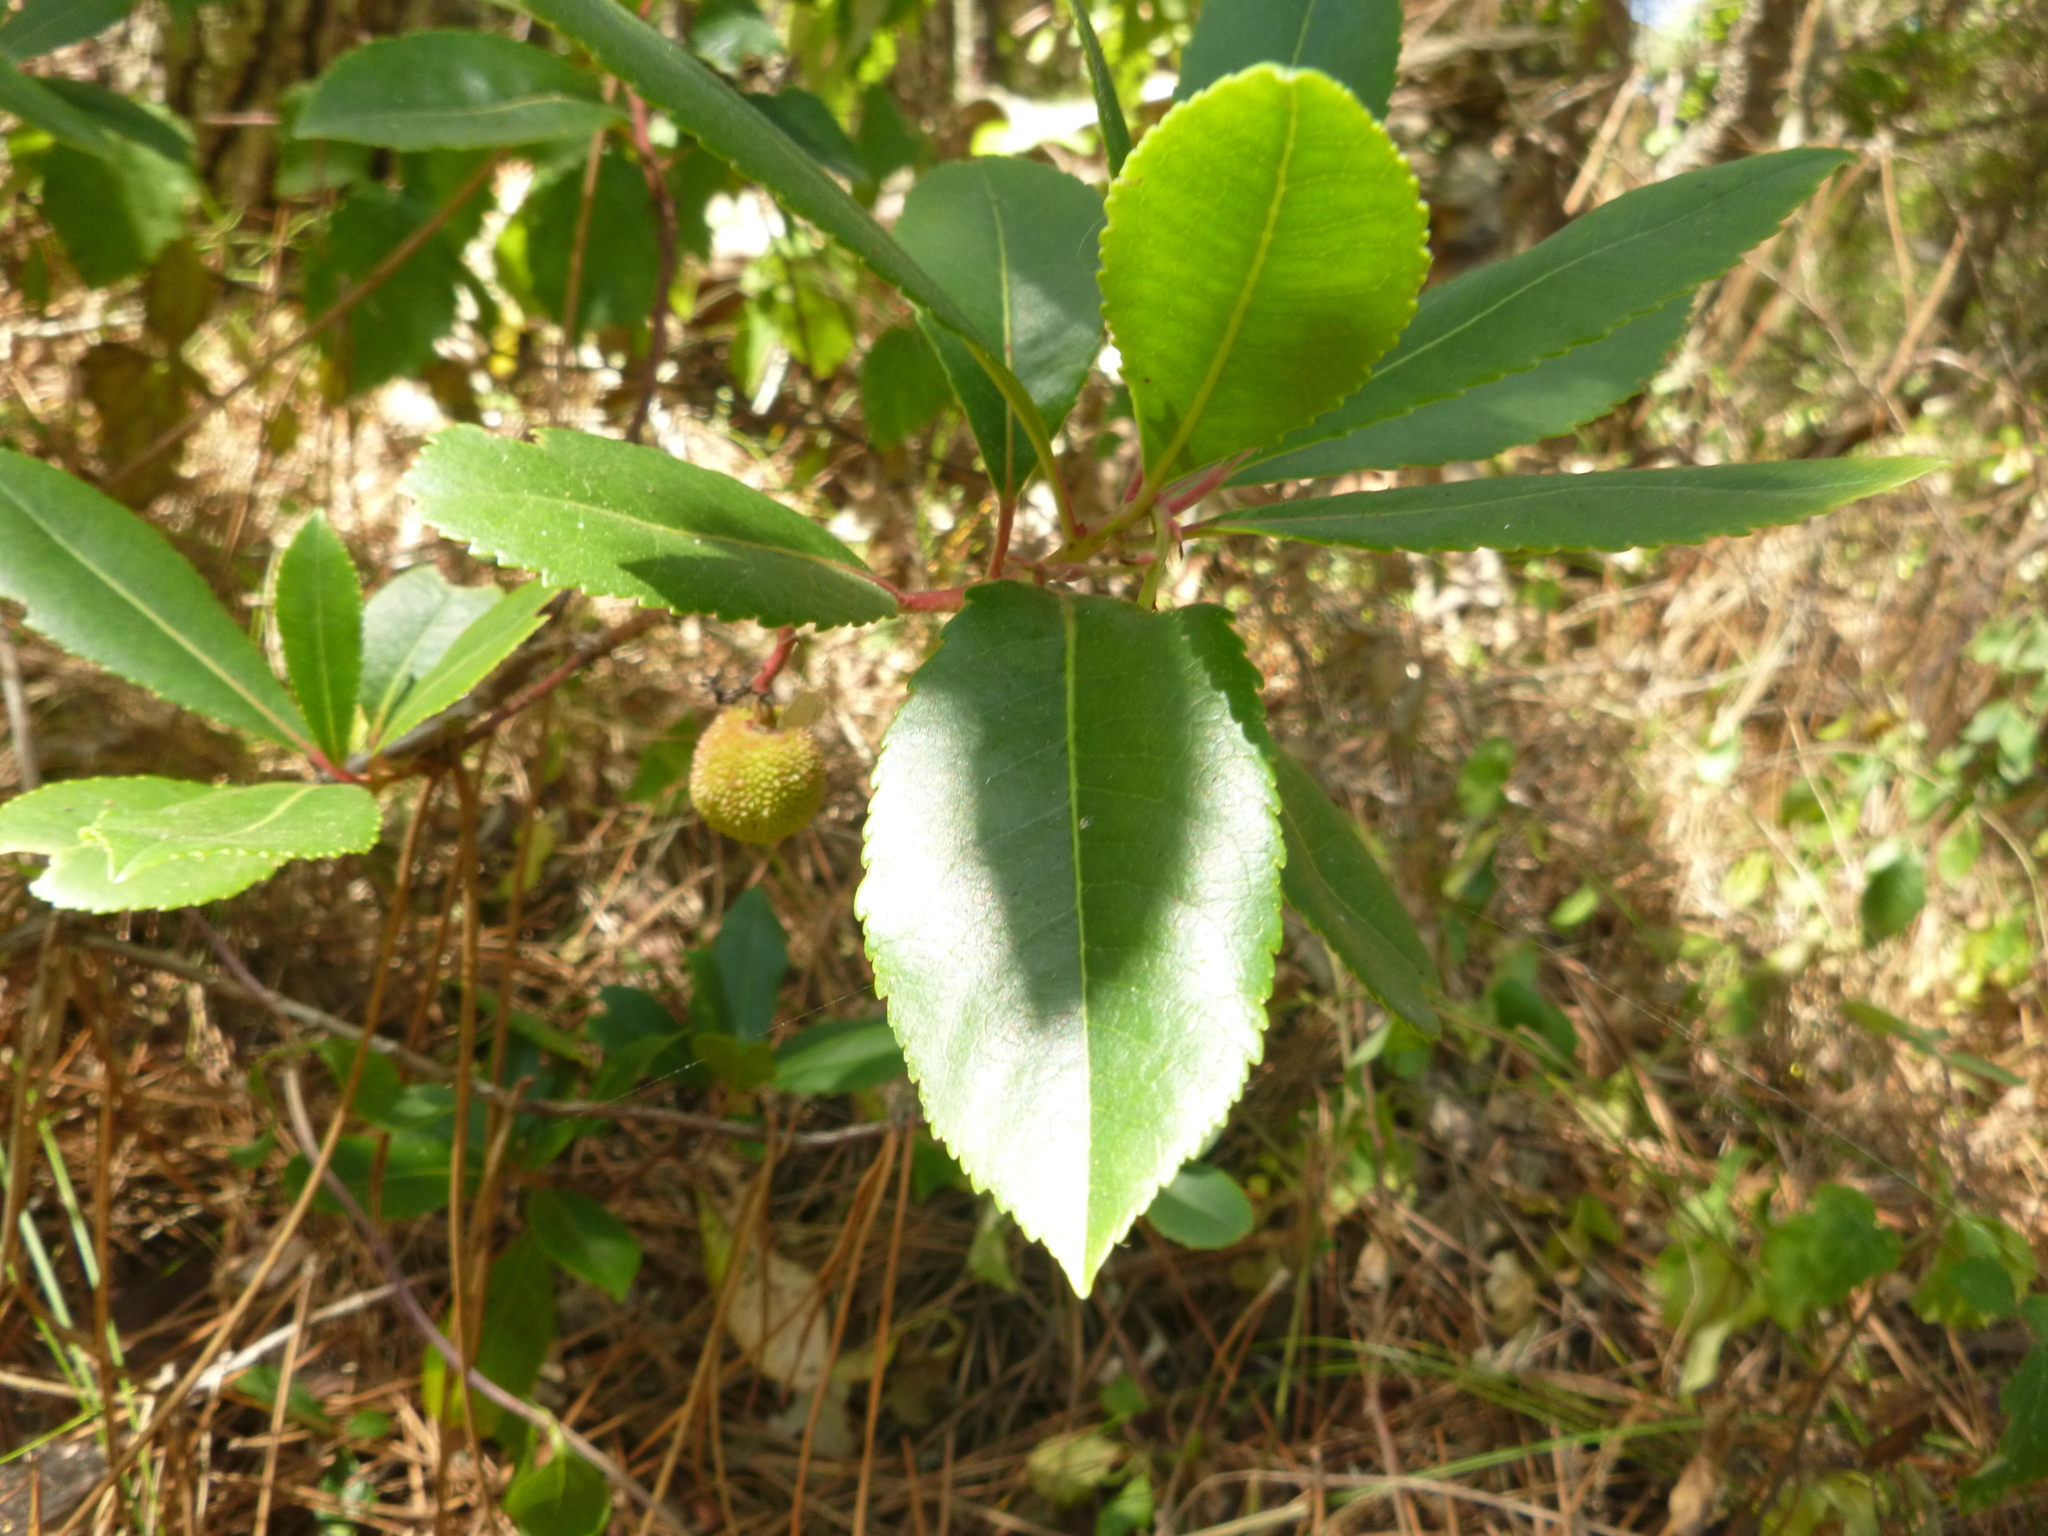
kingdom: Plantae
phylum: Tracheophyta
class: Magnoliopsida
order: Ericales
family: Ericaceae
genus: Arbutus
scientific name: Arbutus unedo
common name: Strawberry-tree
